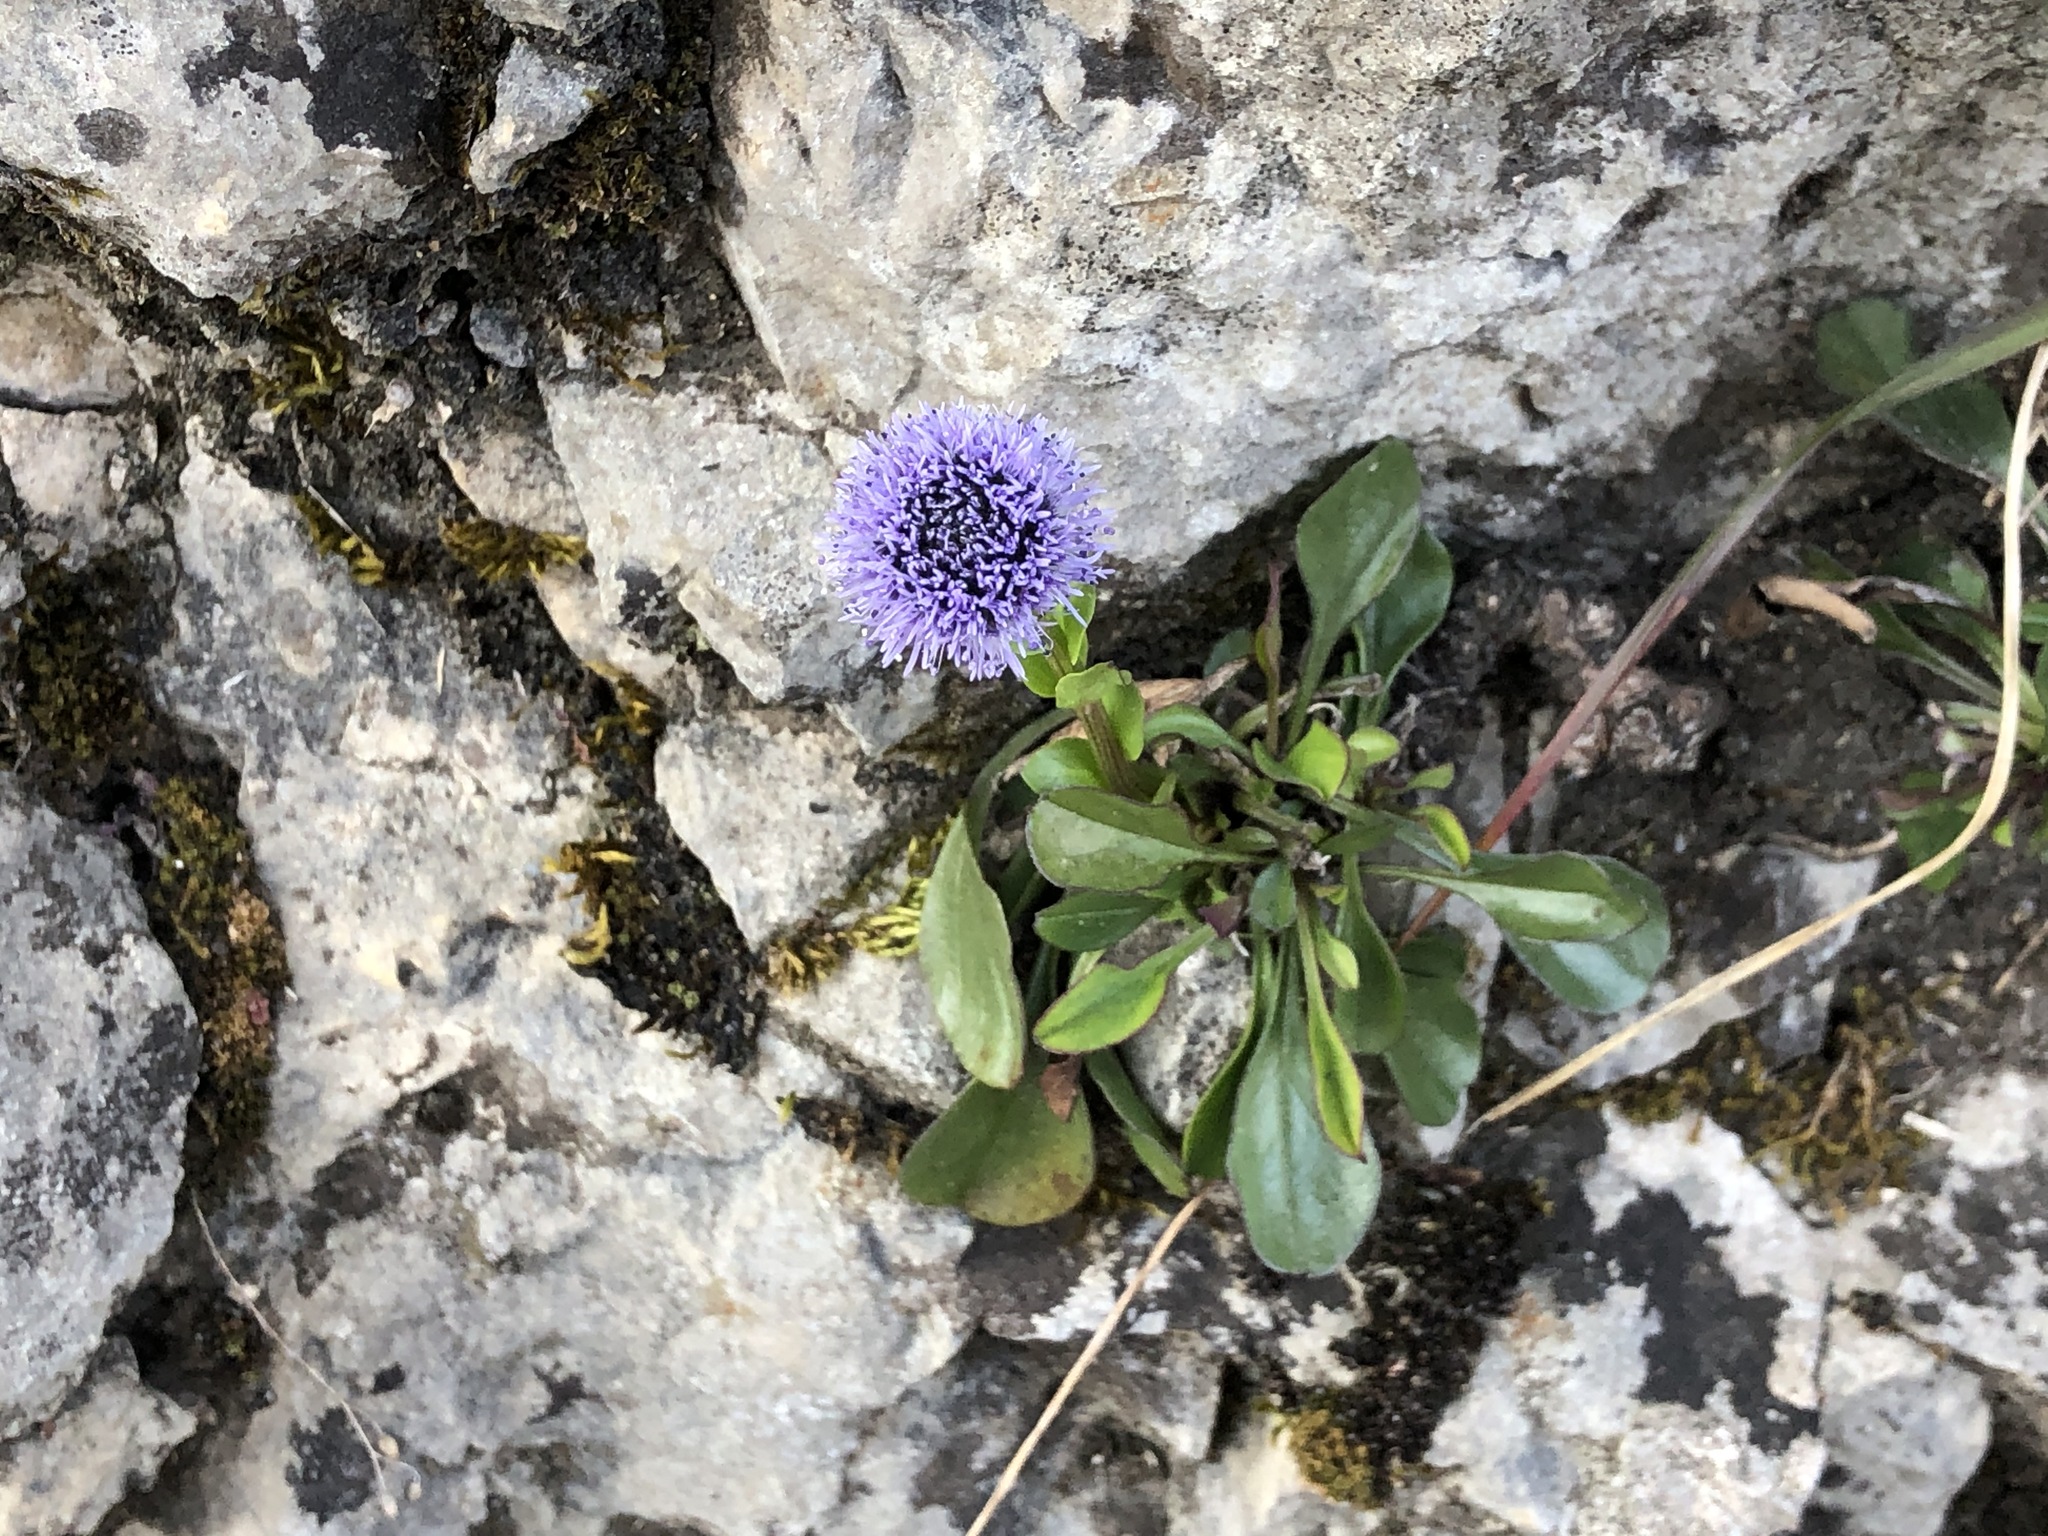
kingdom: Plantae
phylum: Tracheophyta
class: Magnoliopsida
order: Lamiales
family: Plantaginaceae
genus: Globularia
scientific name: Globularia bisnagarica
